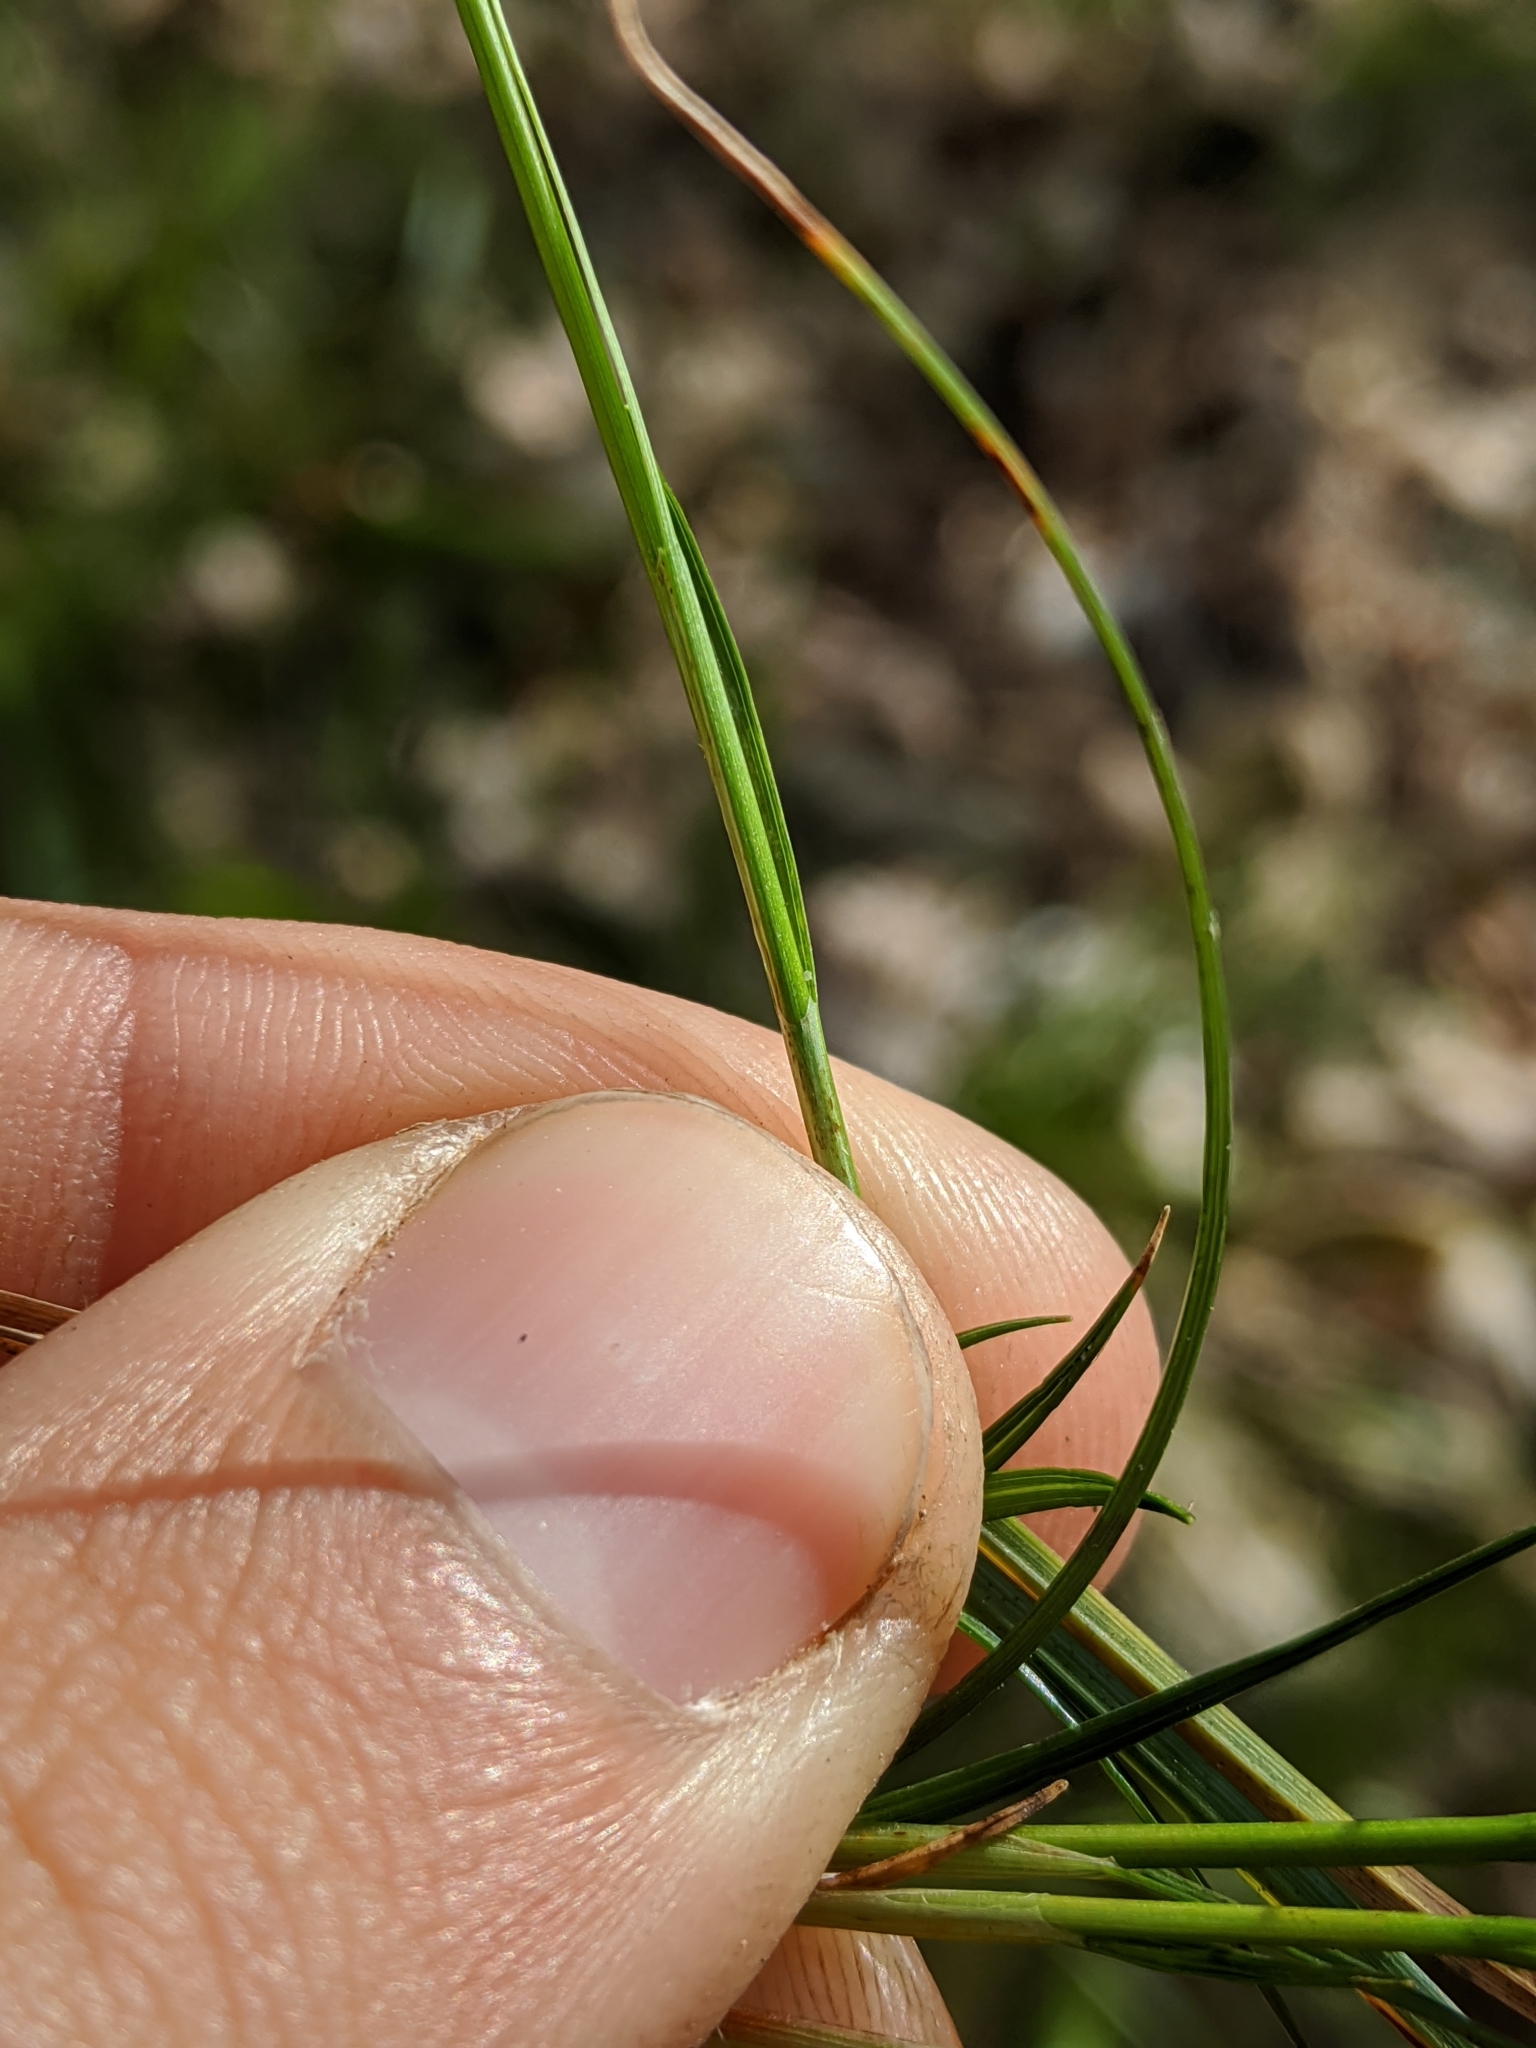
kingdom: Plantae
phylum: Tracheophyta
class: Liliopsida
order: Poales
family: Cyperaceae
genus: Carex
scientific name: Carex pensylvanica
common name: Common oak sedge
